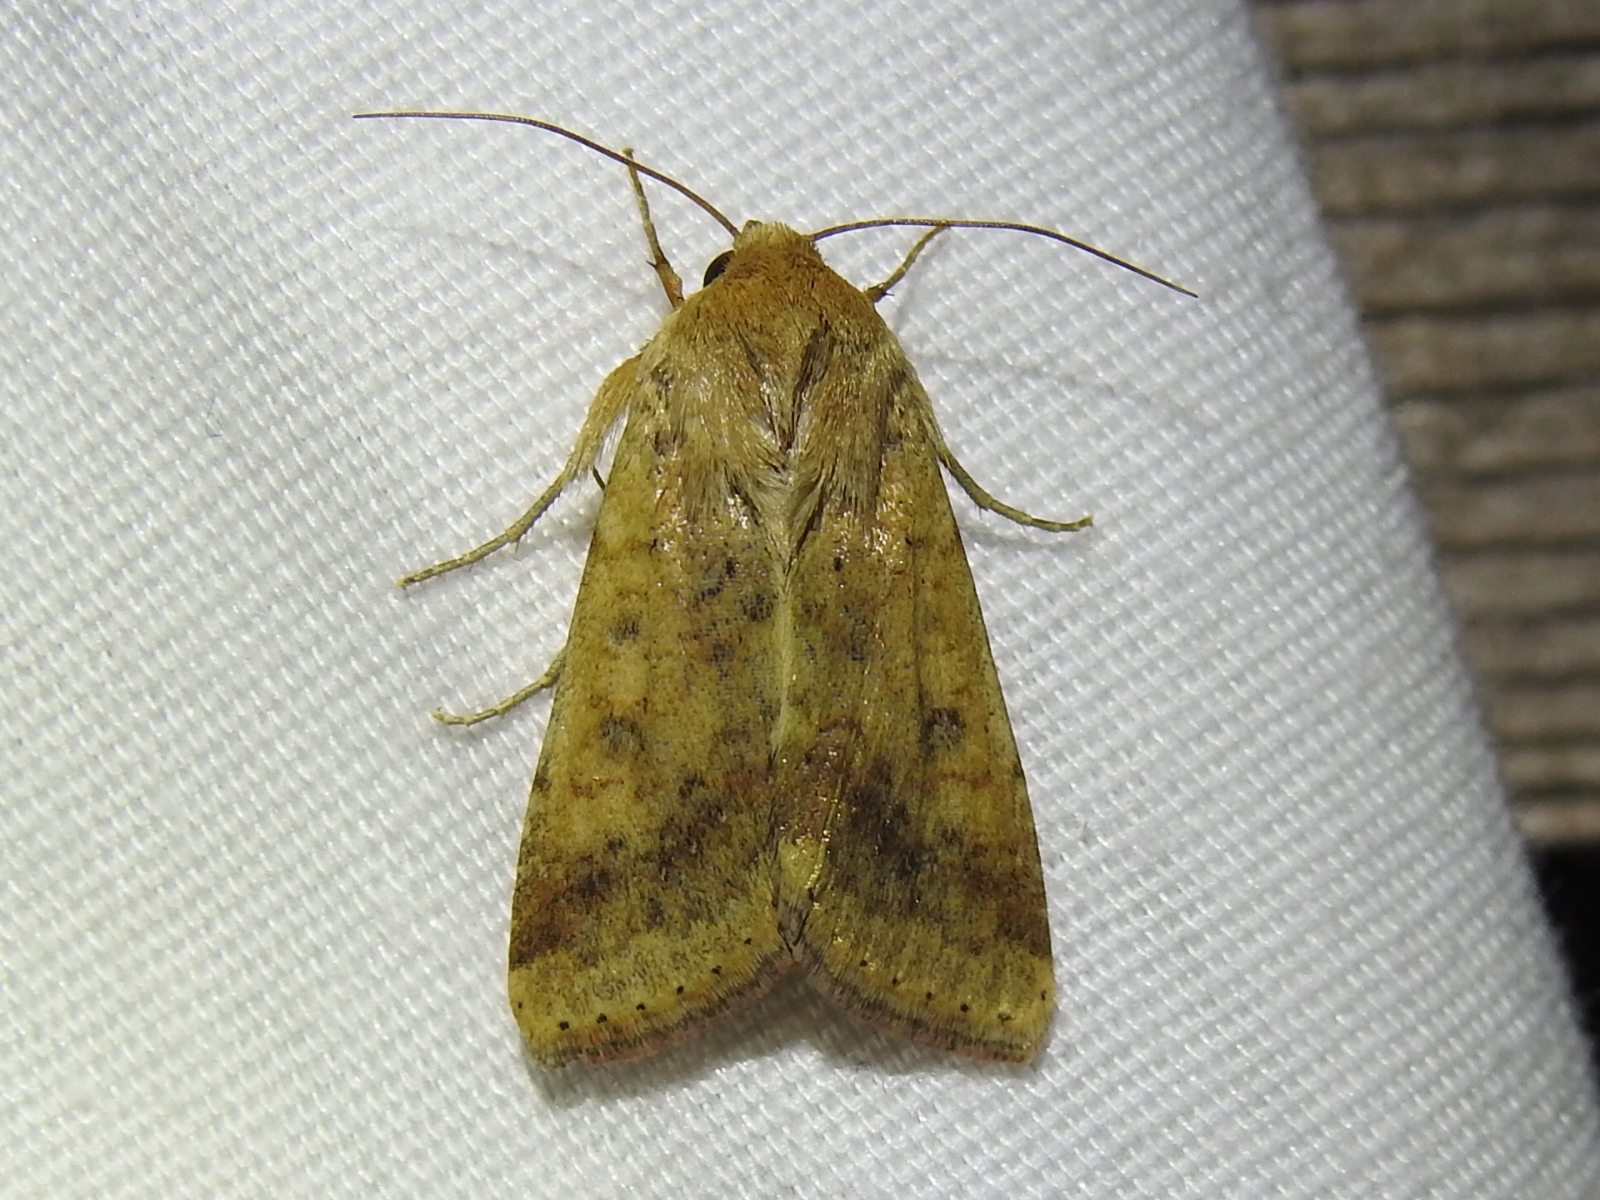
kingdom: Animalia
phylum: Arthropoda
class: Insecta
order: Lepidoptera
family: Noctuidae
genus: Helicoverpa
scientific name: Helicoverpa zea
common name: Bollworm
